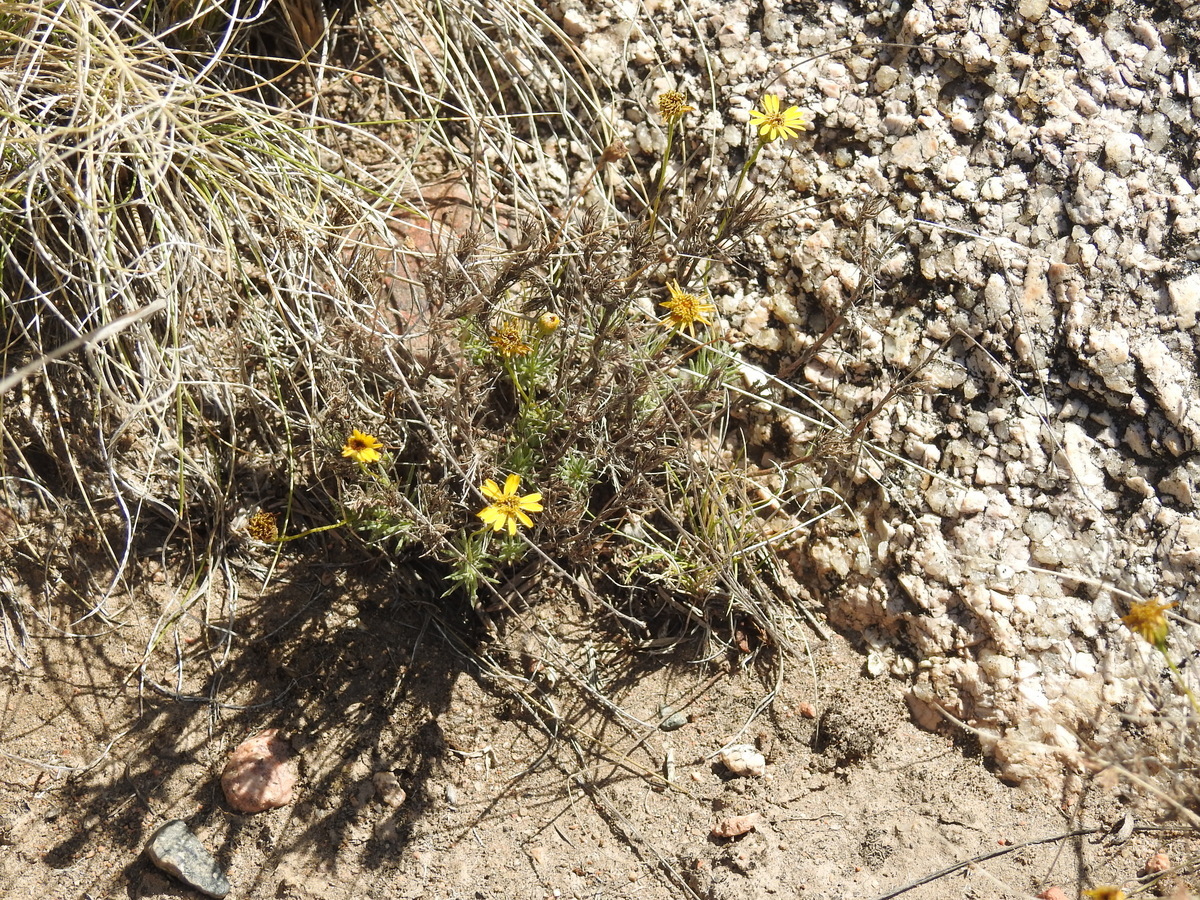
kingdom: Plantae
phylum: Tracheophyta
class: Magnoliopsida
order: Asterales
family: Asteraceae
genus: Thymophylla
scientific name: Thymophylla pentachaeta
